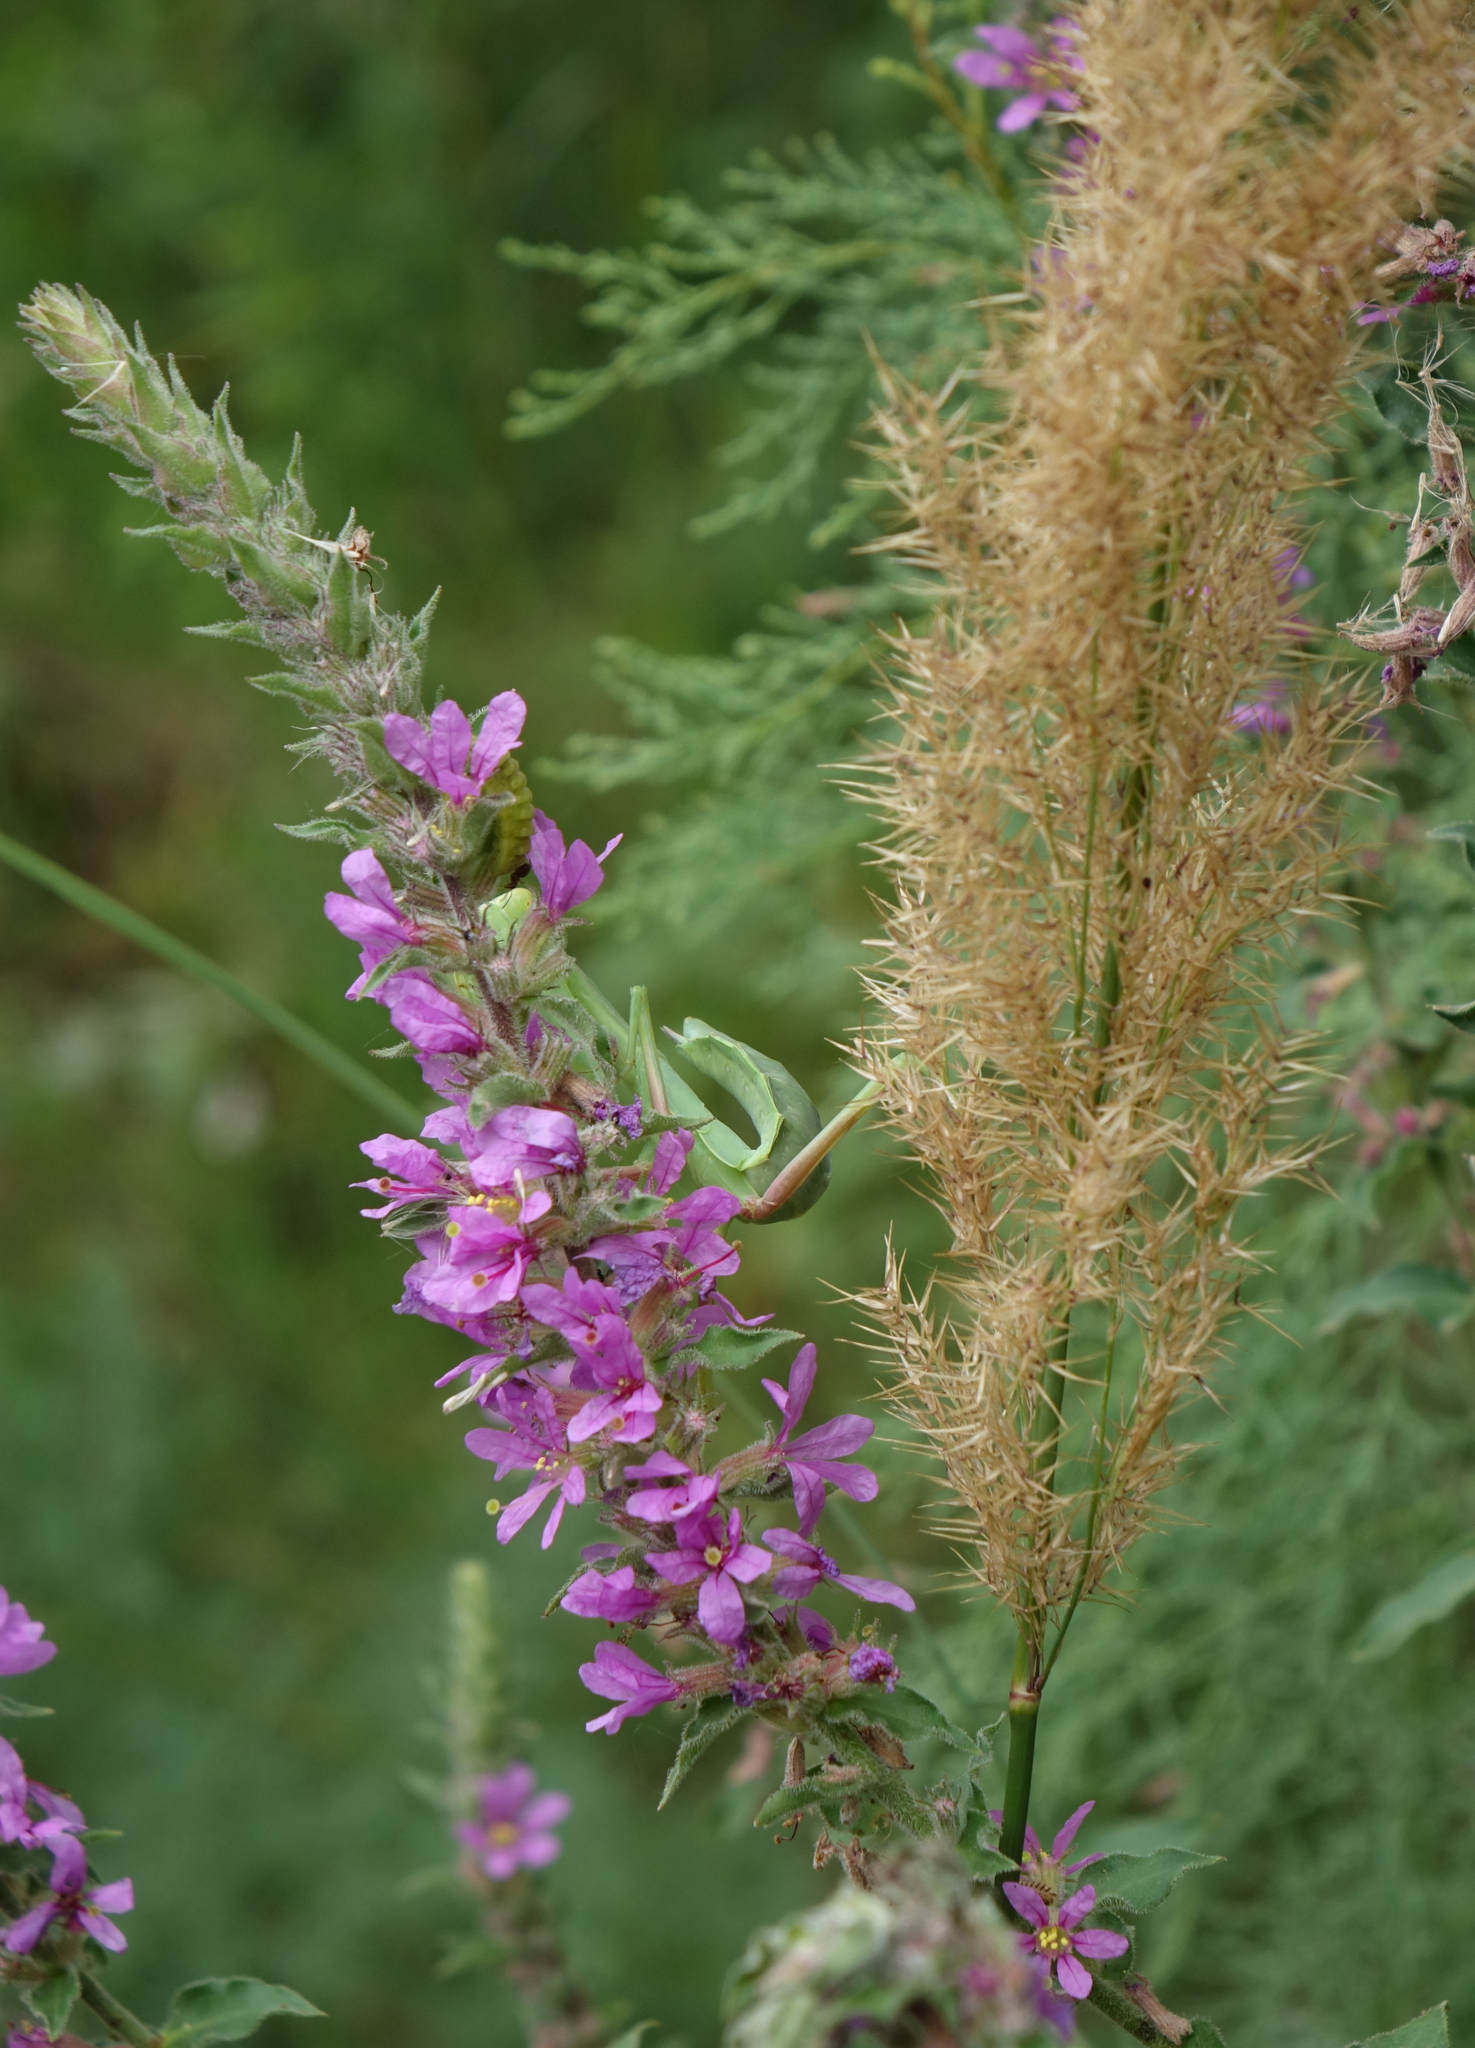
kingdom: Animalia
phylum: Arthropoda
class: Insecta
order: Mantodea
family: Mantidae
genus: Hierodula
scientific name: Hierodula transcaucasica
